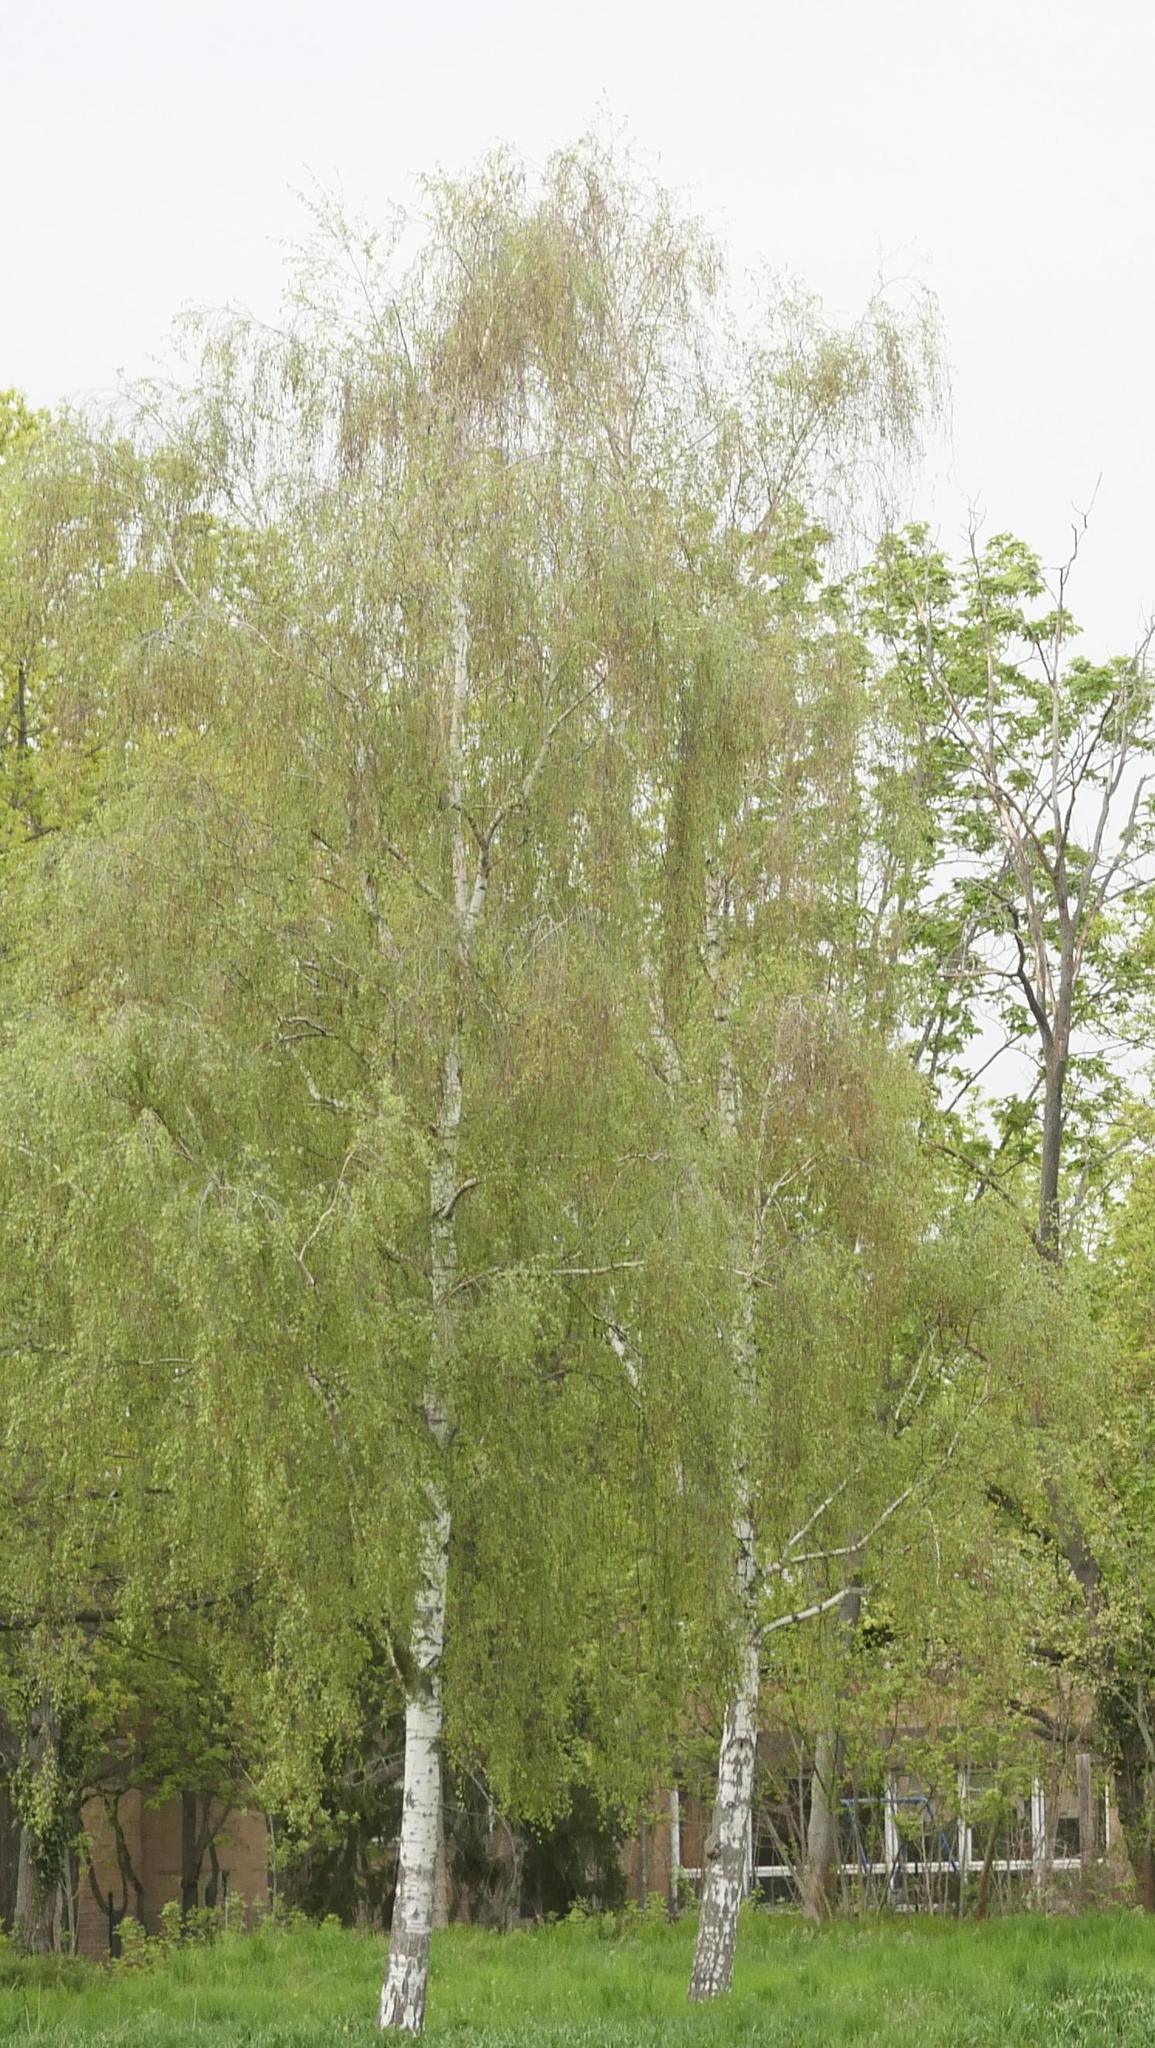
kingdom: Plantae
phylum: Tracheophyta
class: Magnoliopsida
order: Fagales
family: Betulaceae
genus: Betula
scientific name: Betula pendula
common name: Silver birch
